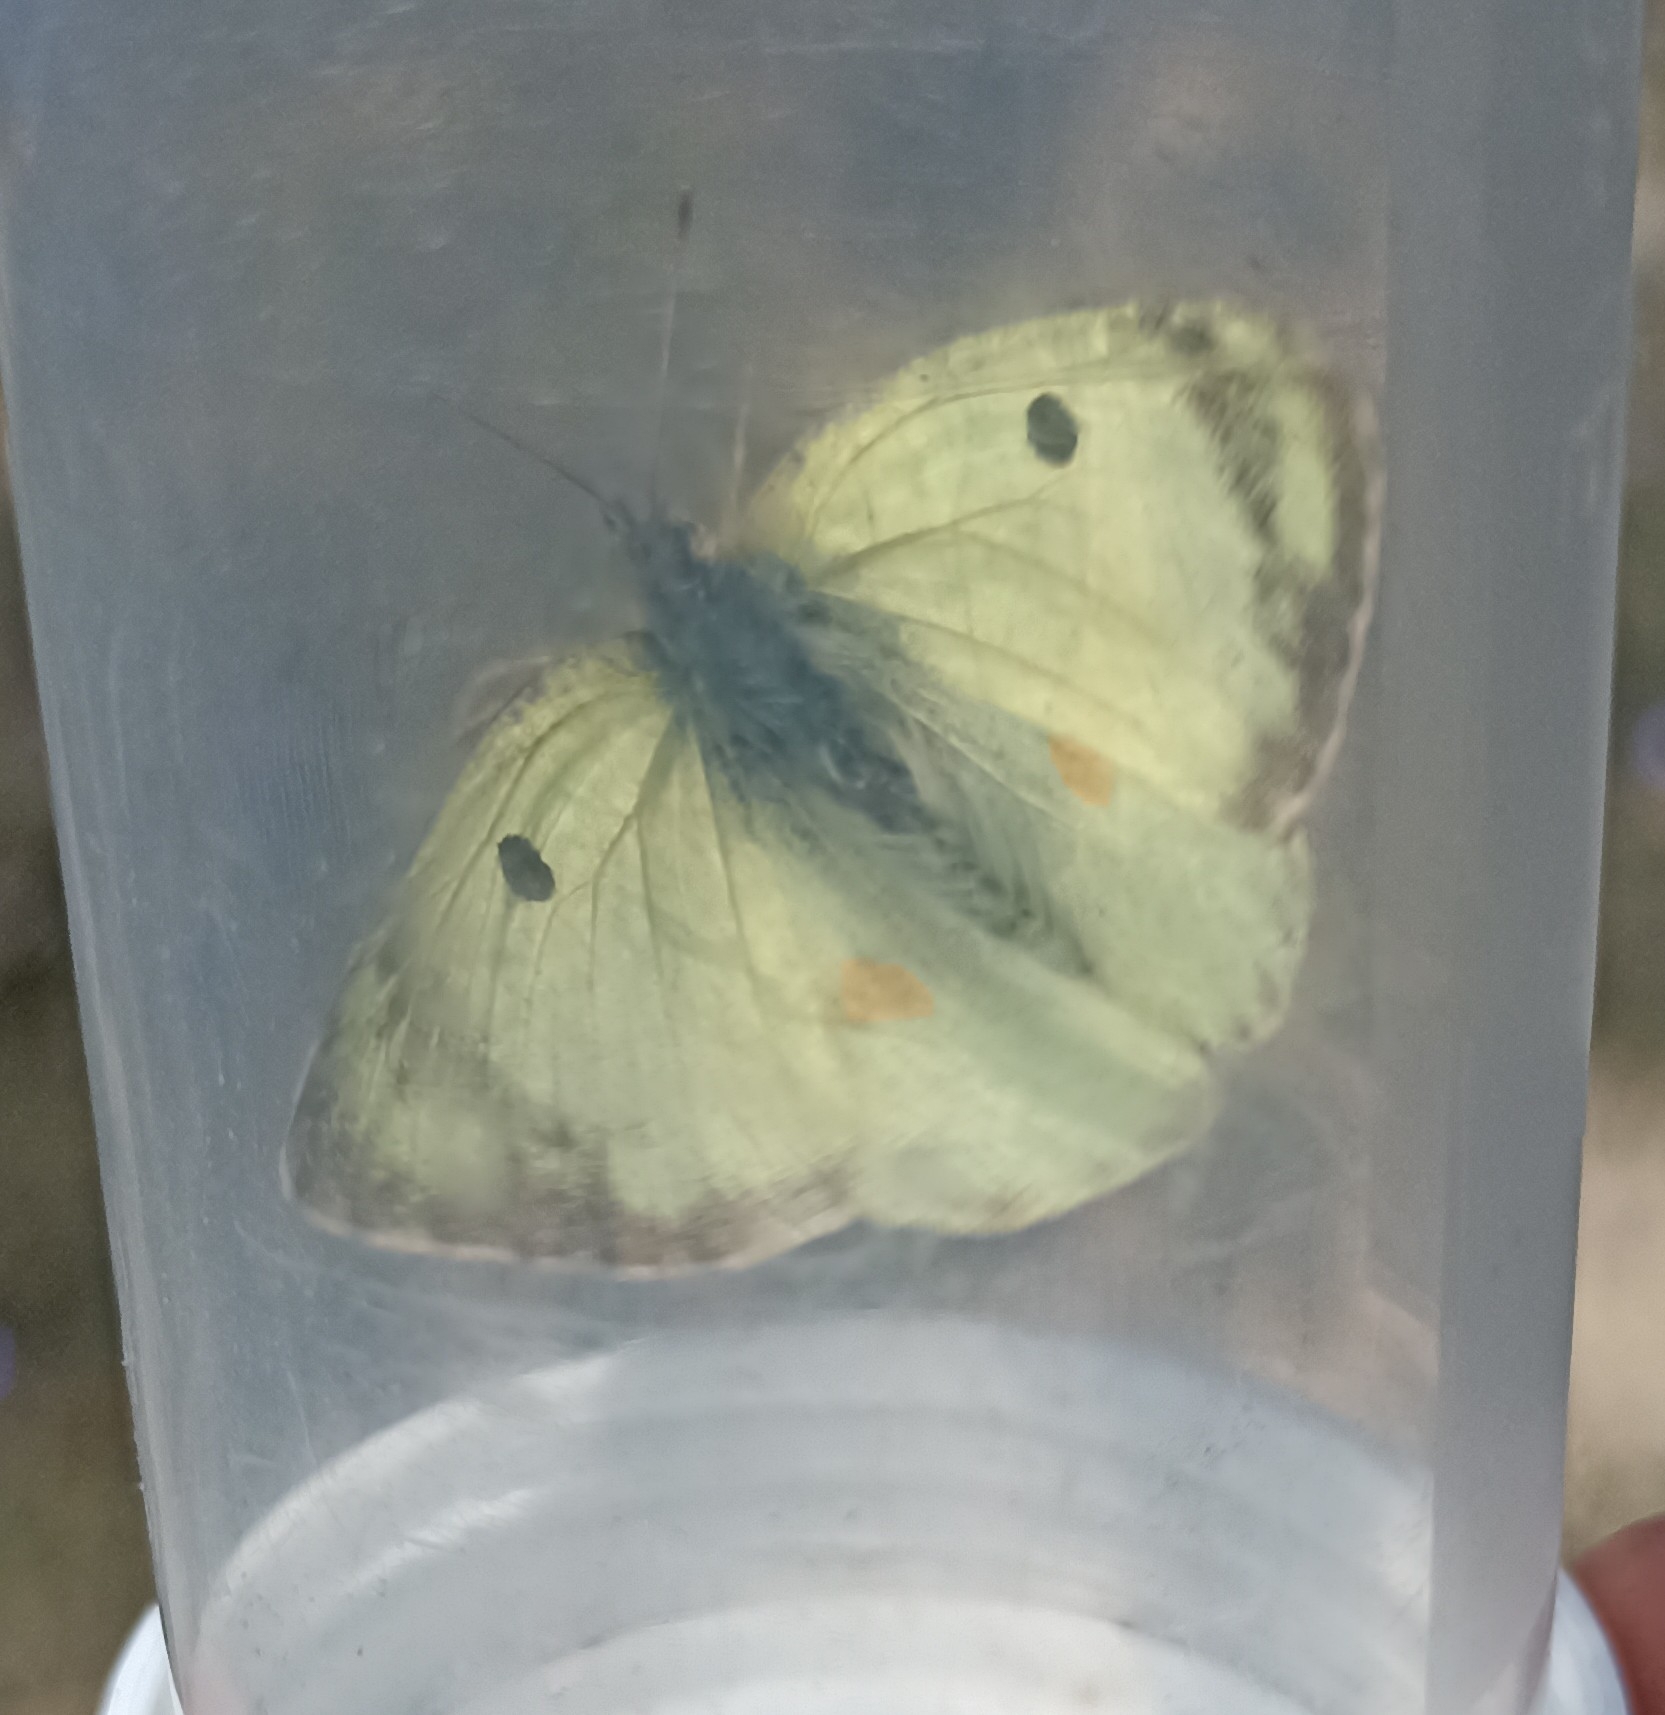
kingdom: Animalia
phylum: Arthropoda
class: Insecta
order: Lepidoptera
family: Pieridae
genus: Colias
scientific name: Colias alfacariensis
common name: Berger's clouded yellow
